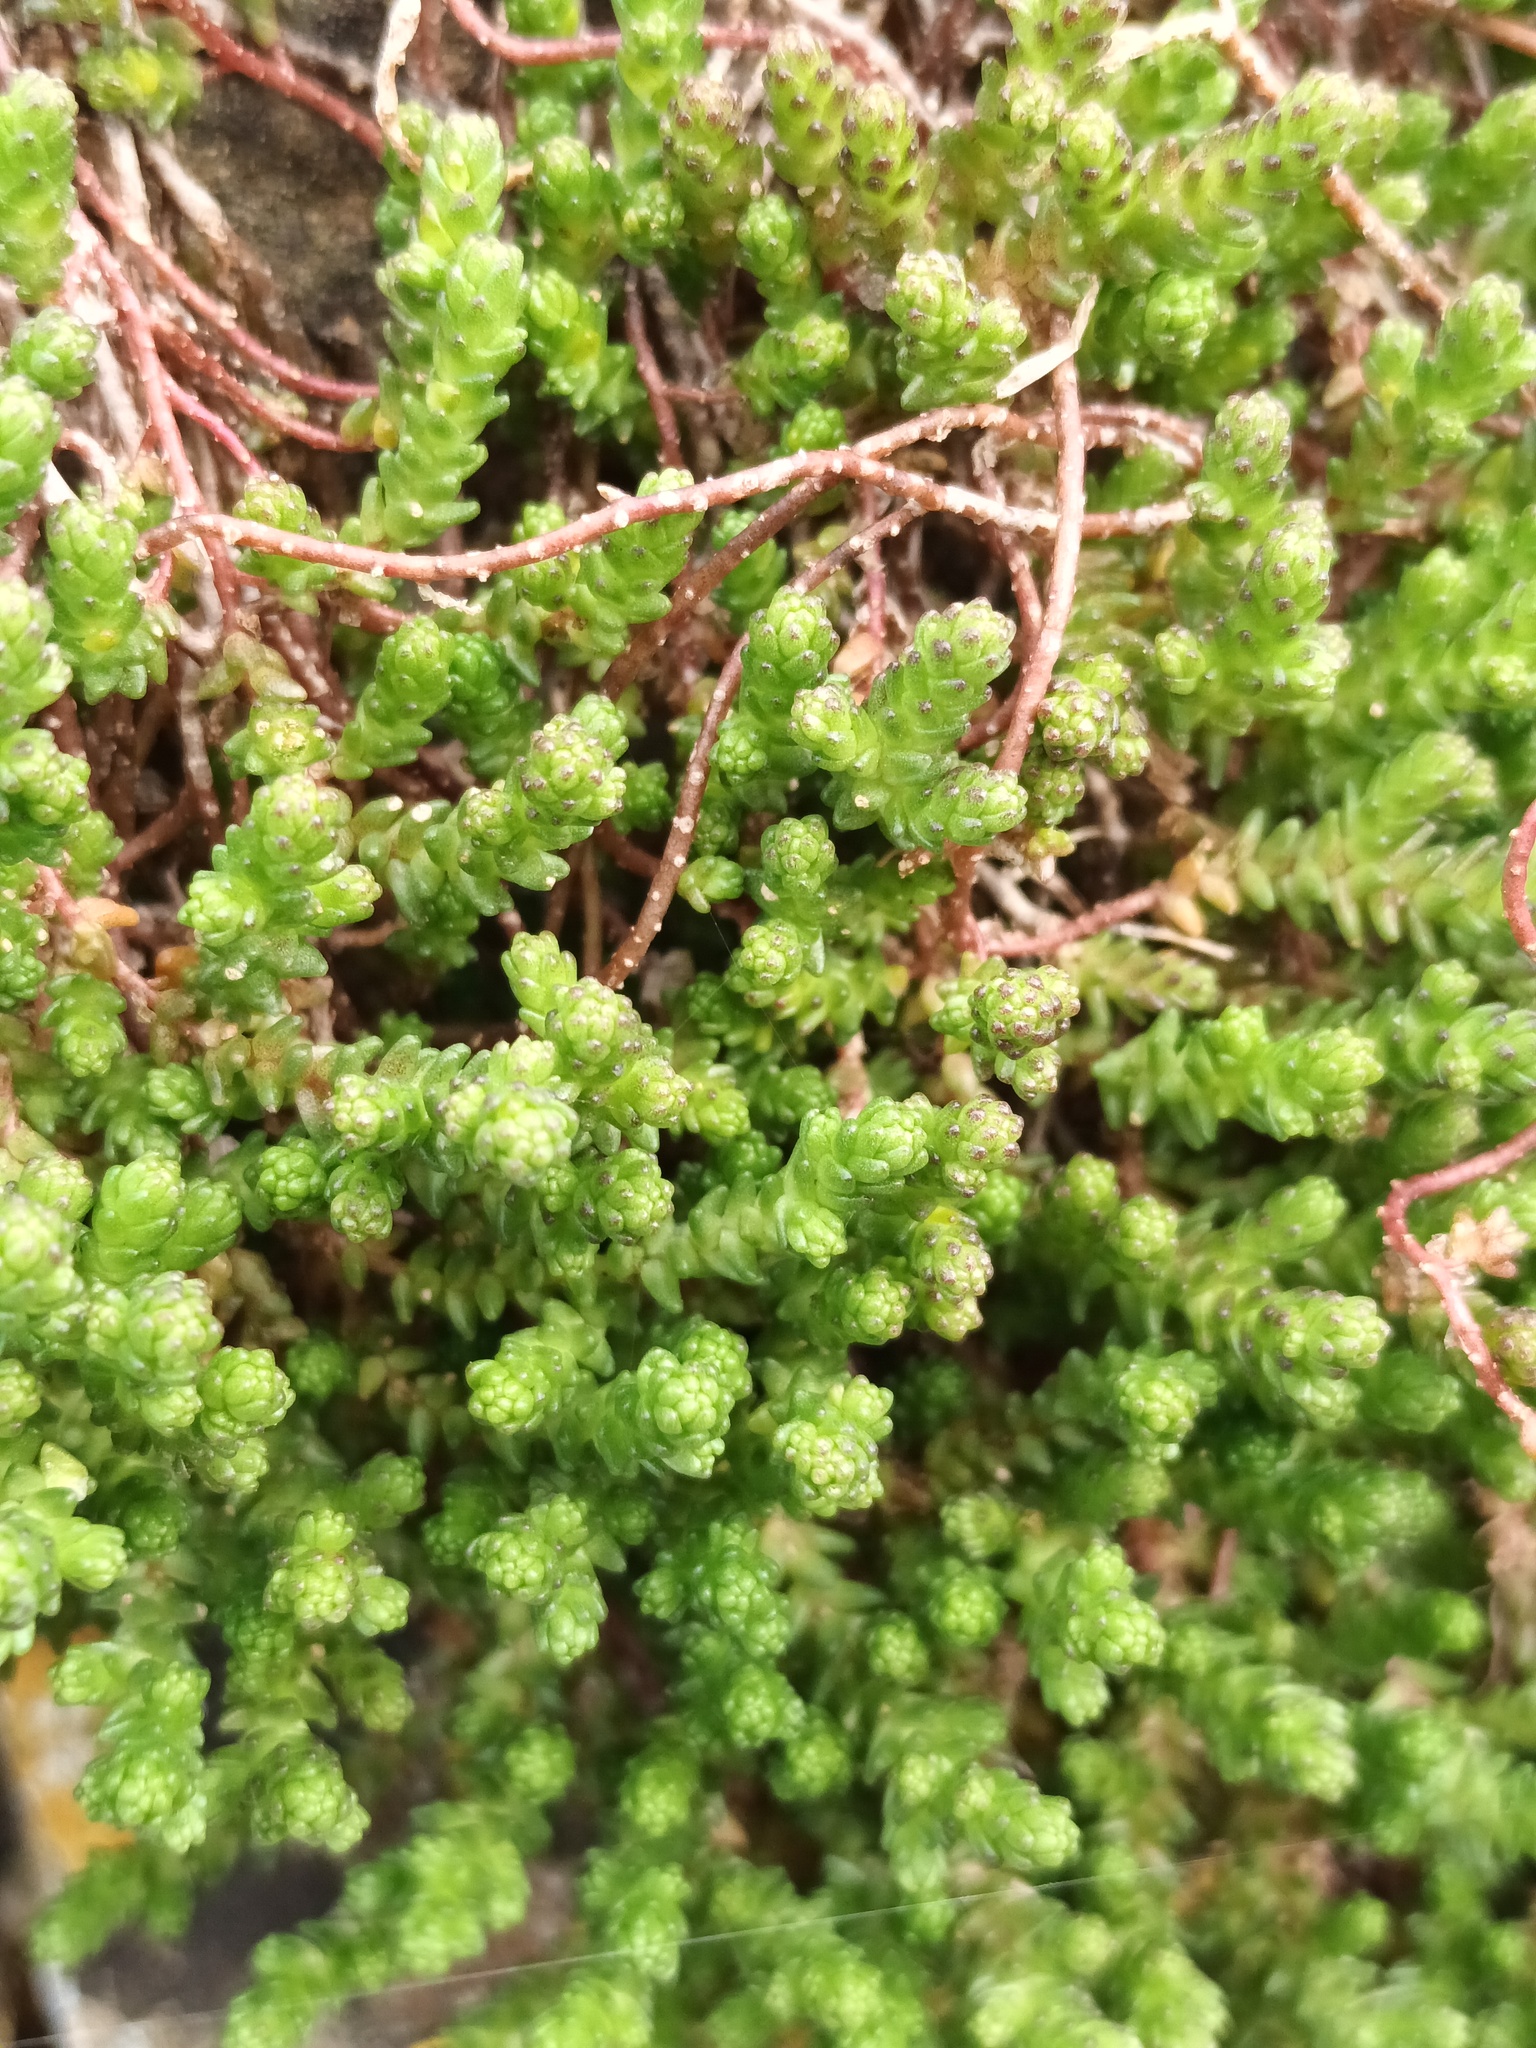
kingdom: Plantae
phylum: Tracheophyta
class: Magnoliopsida
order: Saxifragales
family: Crassulaceae
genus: Sedum
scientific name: Sedum acre
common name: Biting stonecrop
